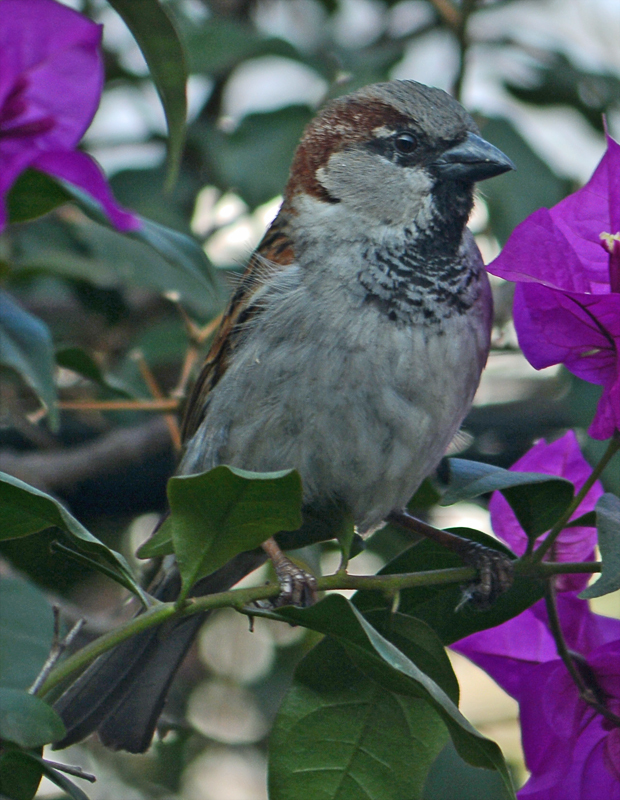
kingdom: Animalia
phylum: Chordata
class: Aves
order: Passeriformes
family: Passeridae
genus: Passer
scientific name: Passer domesticus
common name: House sparrow
